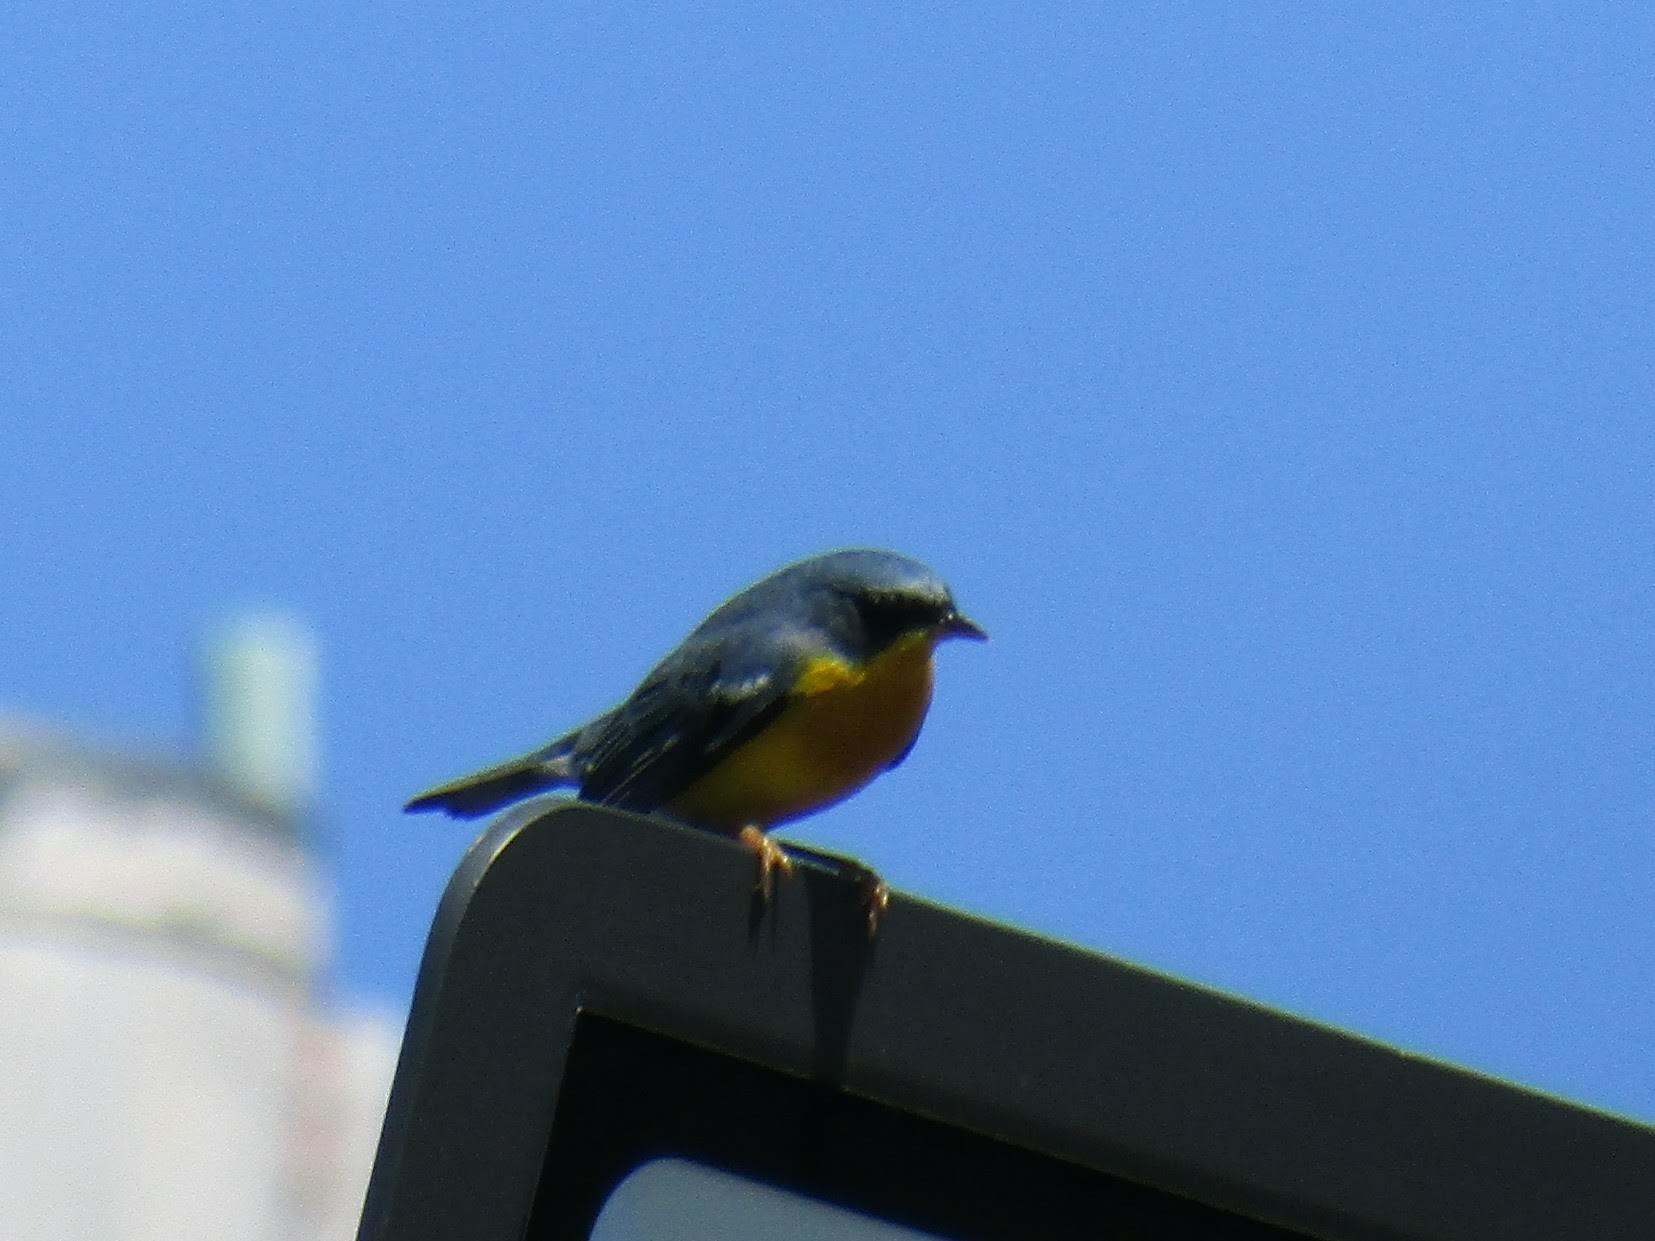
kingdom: Animalia
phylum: Chordata
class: Aves
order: Passeriformes
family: Parulidae
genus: Setophaga
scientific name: Setophaga pitiayumi
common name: Tropical parula
